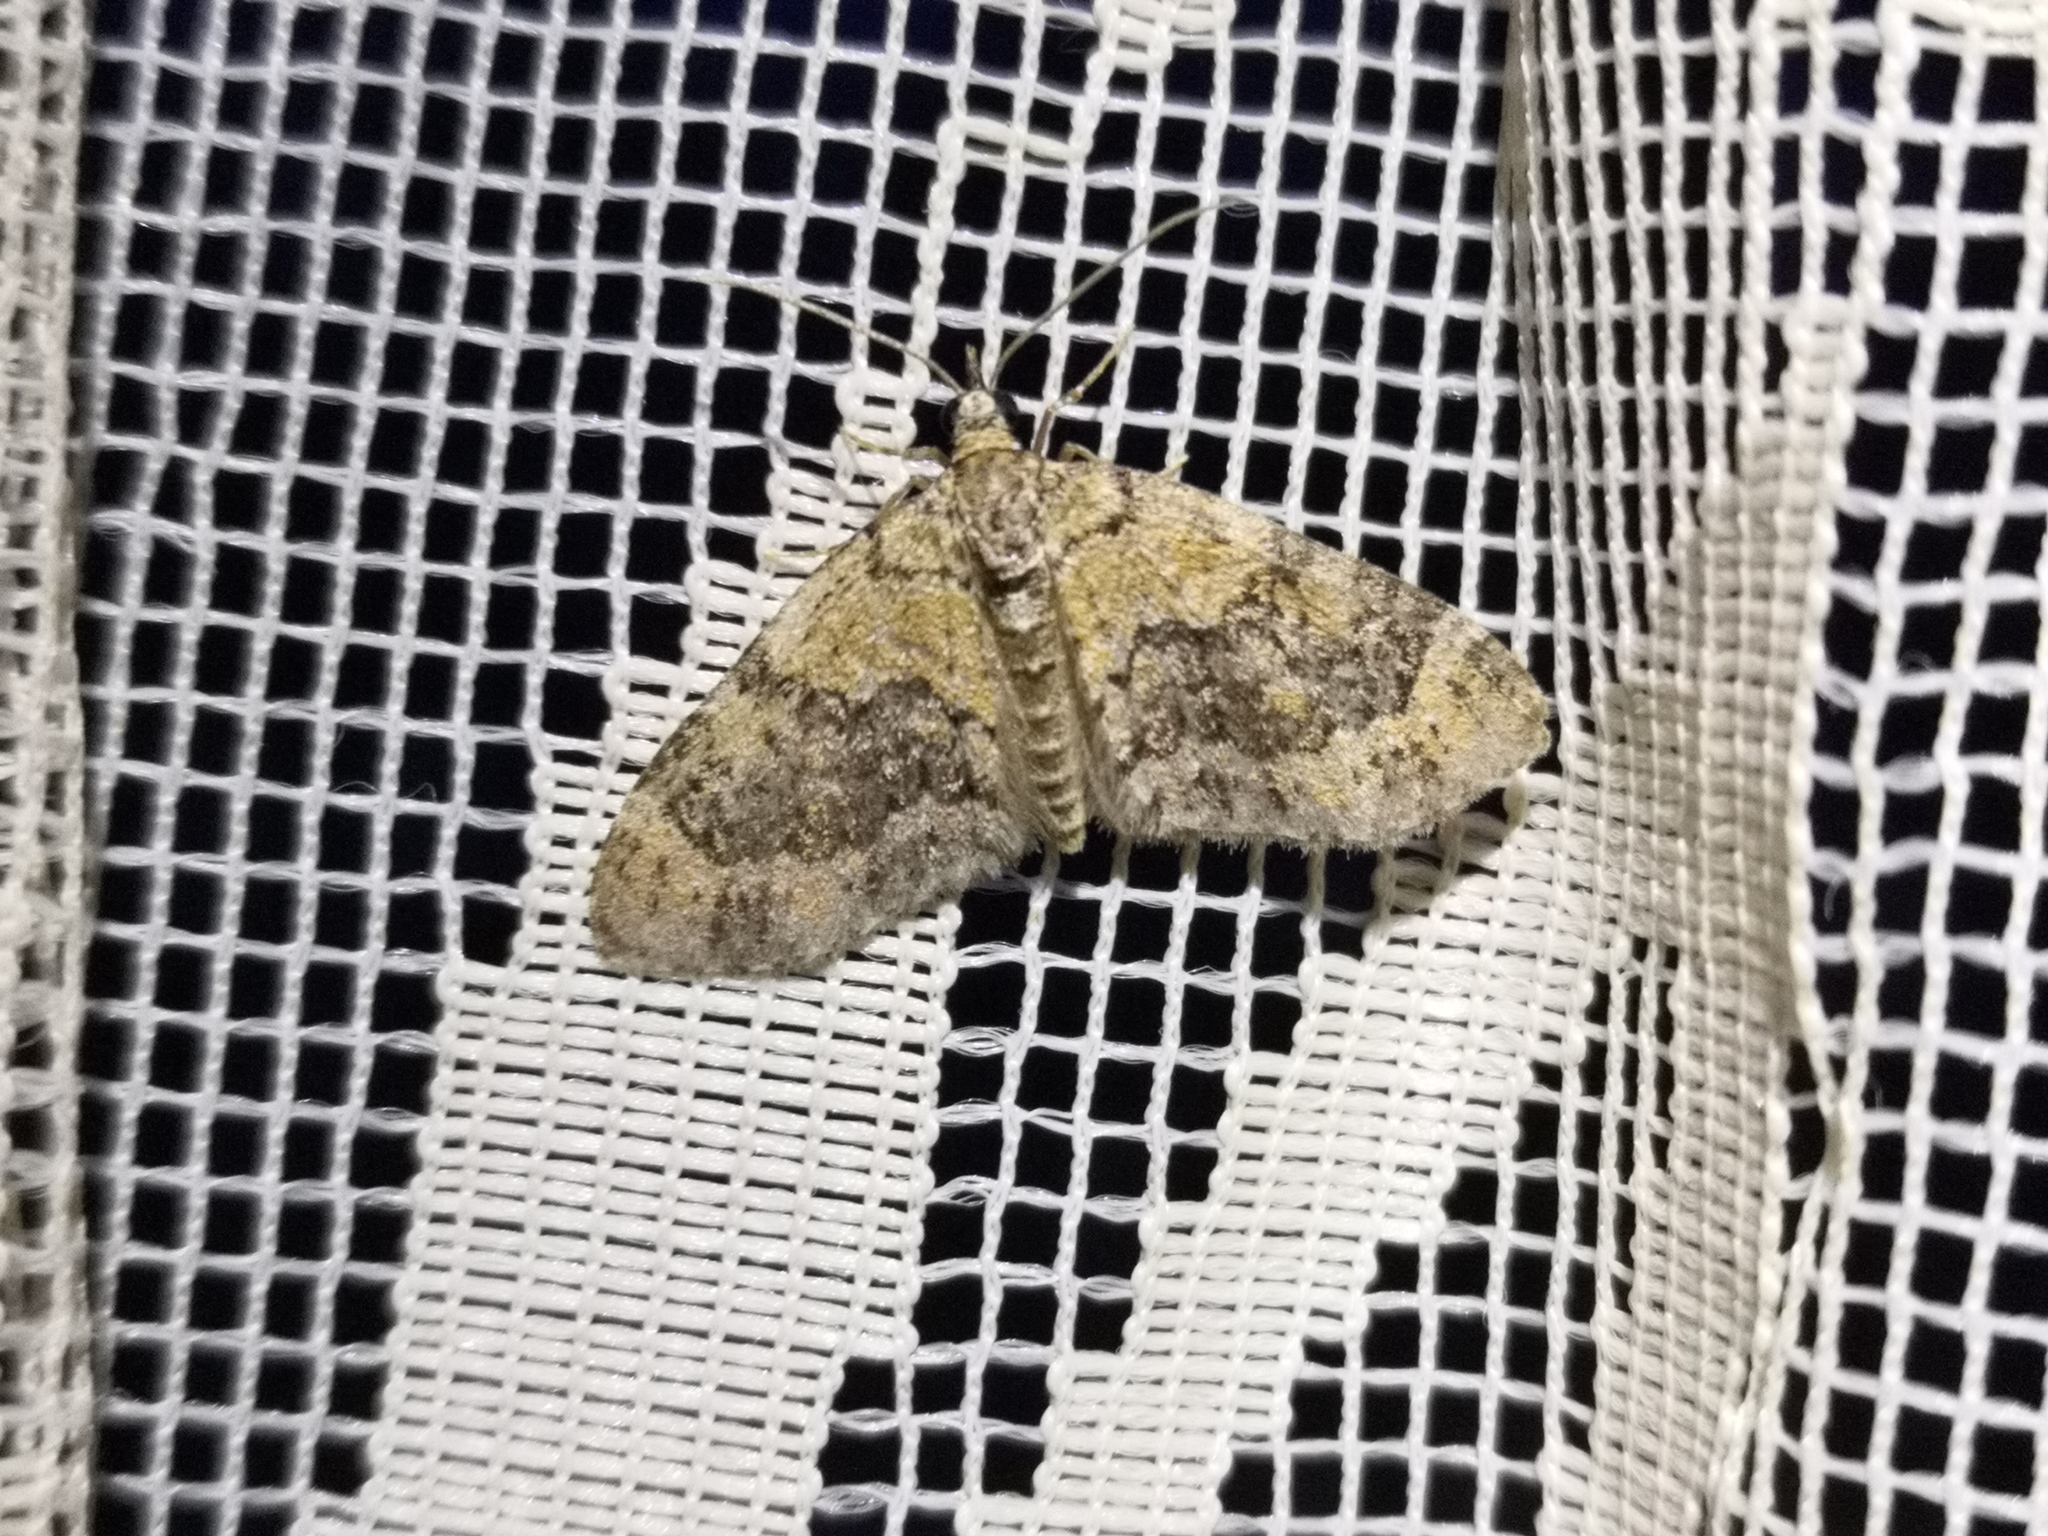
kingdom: Animalia
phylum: Arthropoda
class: Insecta
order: Lepidoptera
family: Geometridae
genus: Acasis
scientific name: Acasis viretata
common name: Yellow-barred brindle
